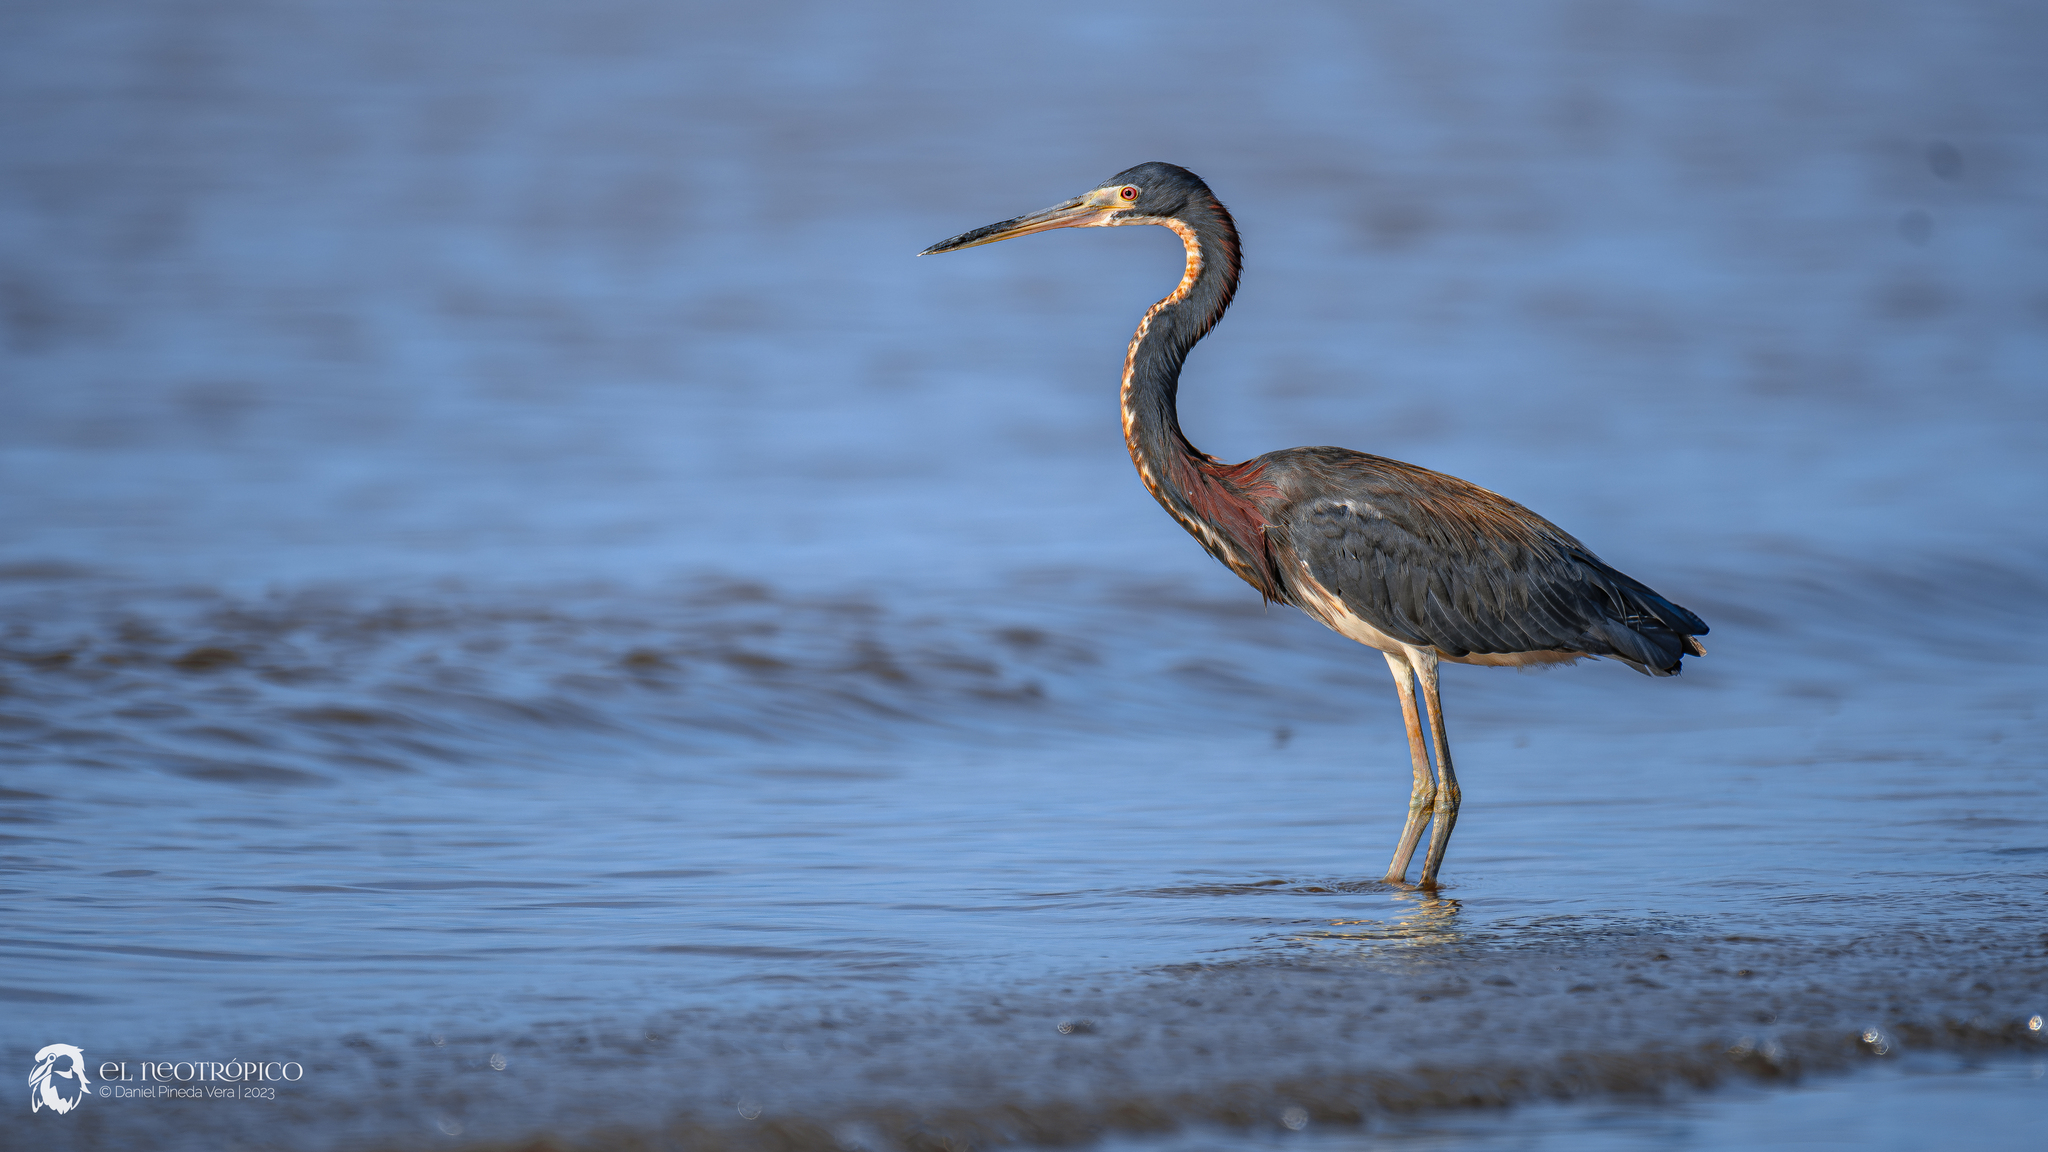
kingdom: Animalia
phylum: Chordata
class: Aves
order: Pelecaniformes
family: Ardeidae
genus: Egretta
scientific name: Egretta tricolor
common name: Tricolored heron
